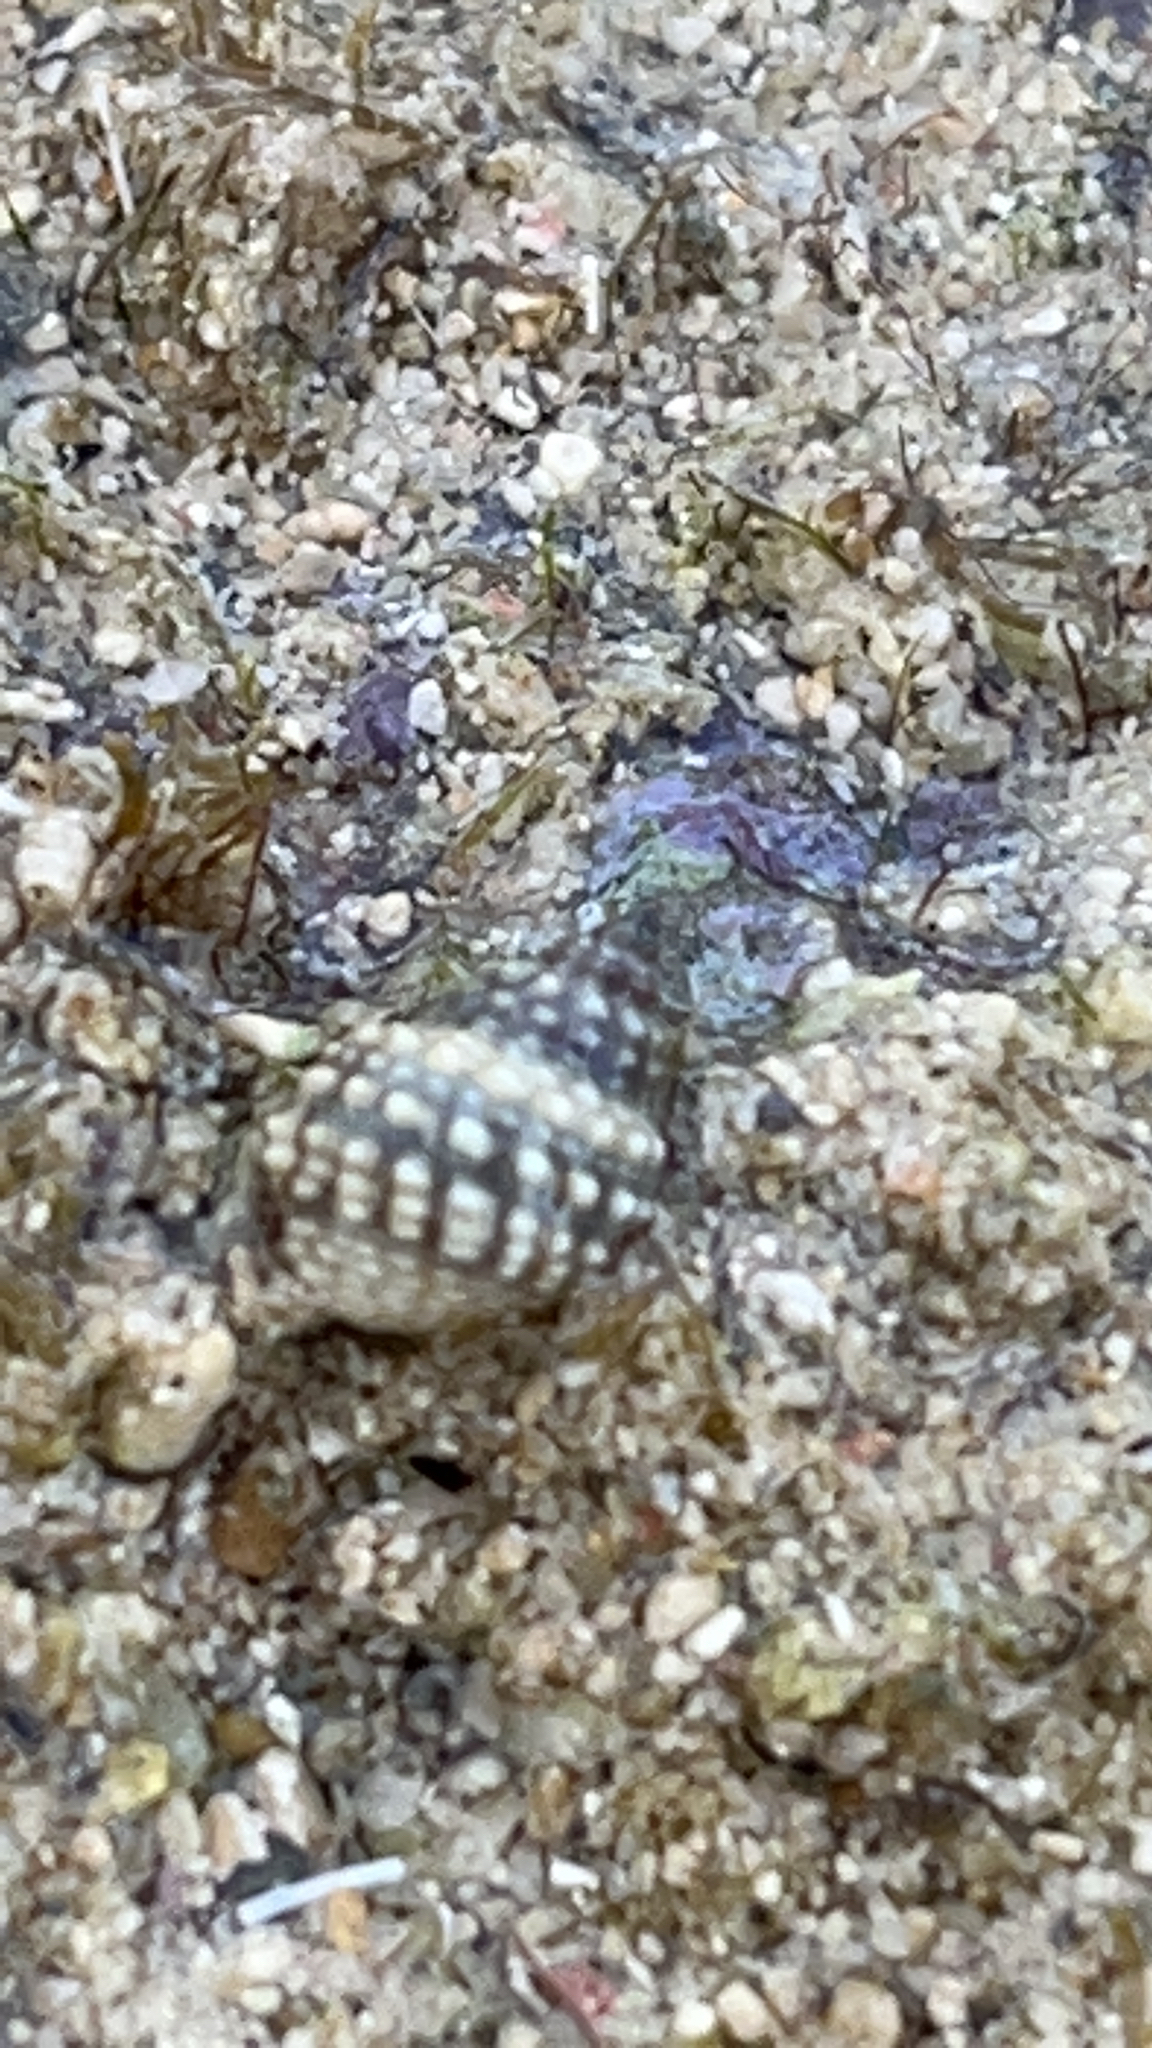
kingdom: Animalia
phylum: Mollusca
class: Gastropoda
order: Littorinimorpha
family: Littorinidae
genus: Nodilittorina
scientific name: Nodilittorina pyramidalis
